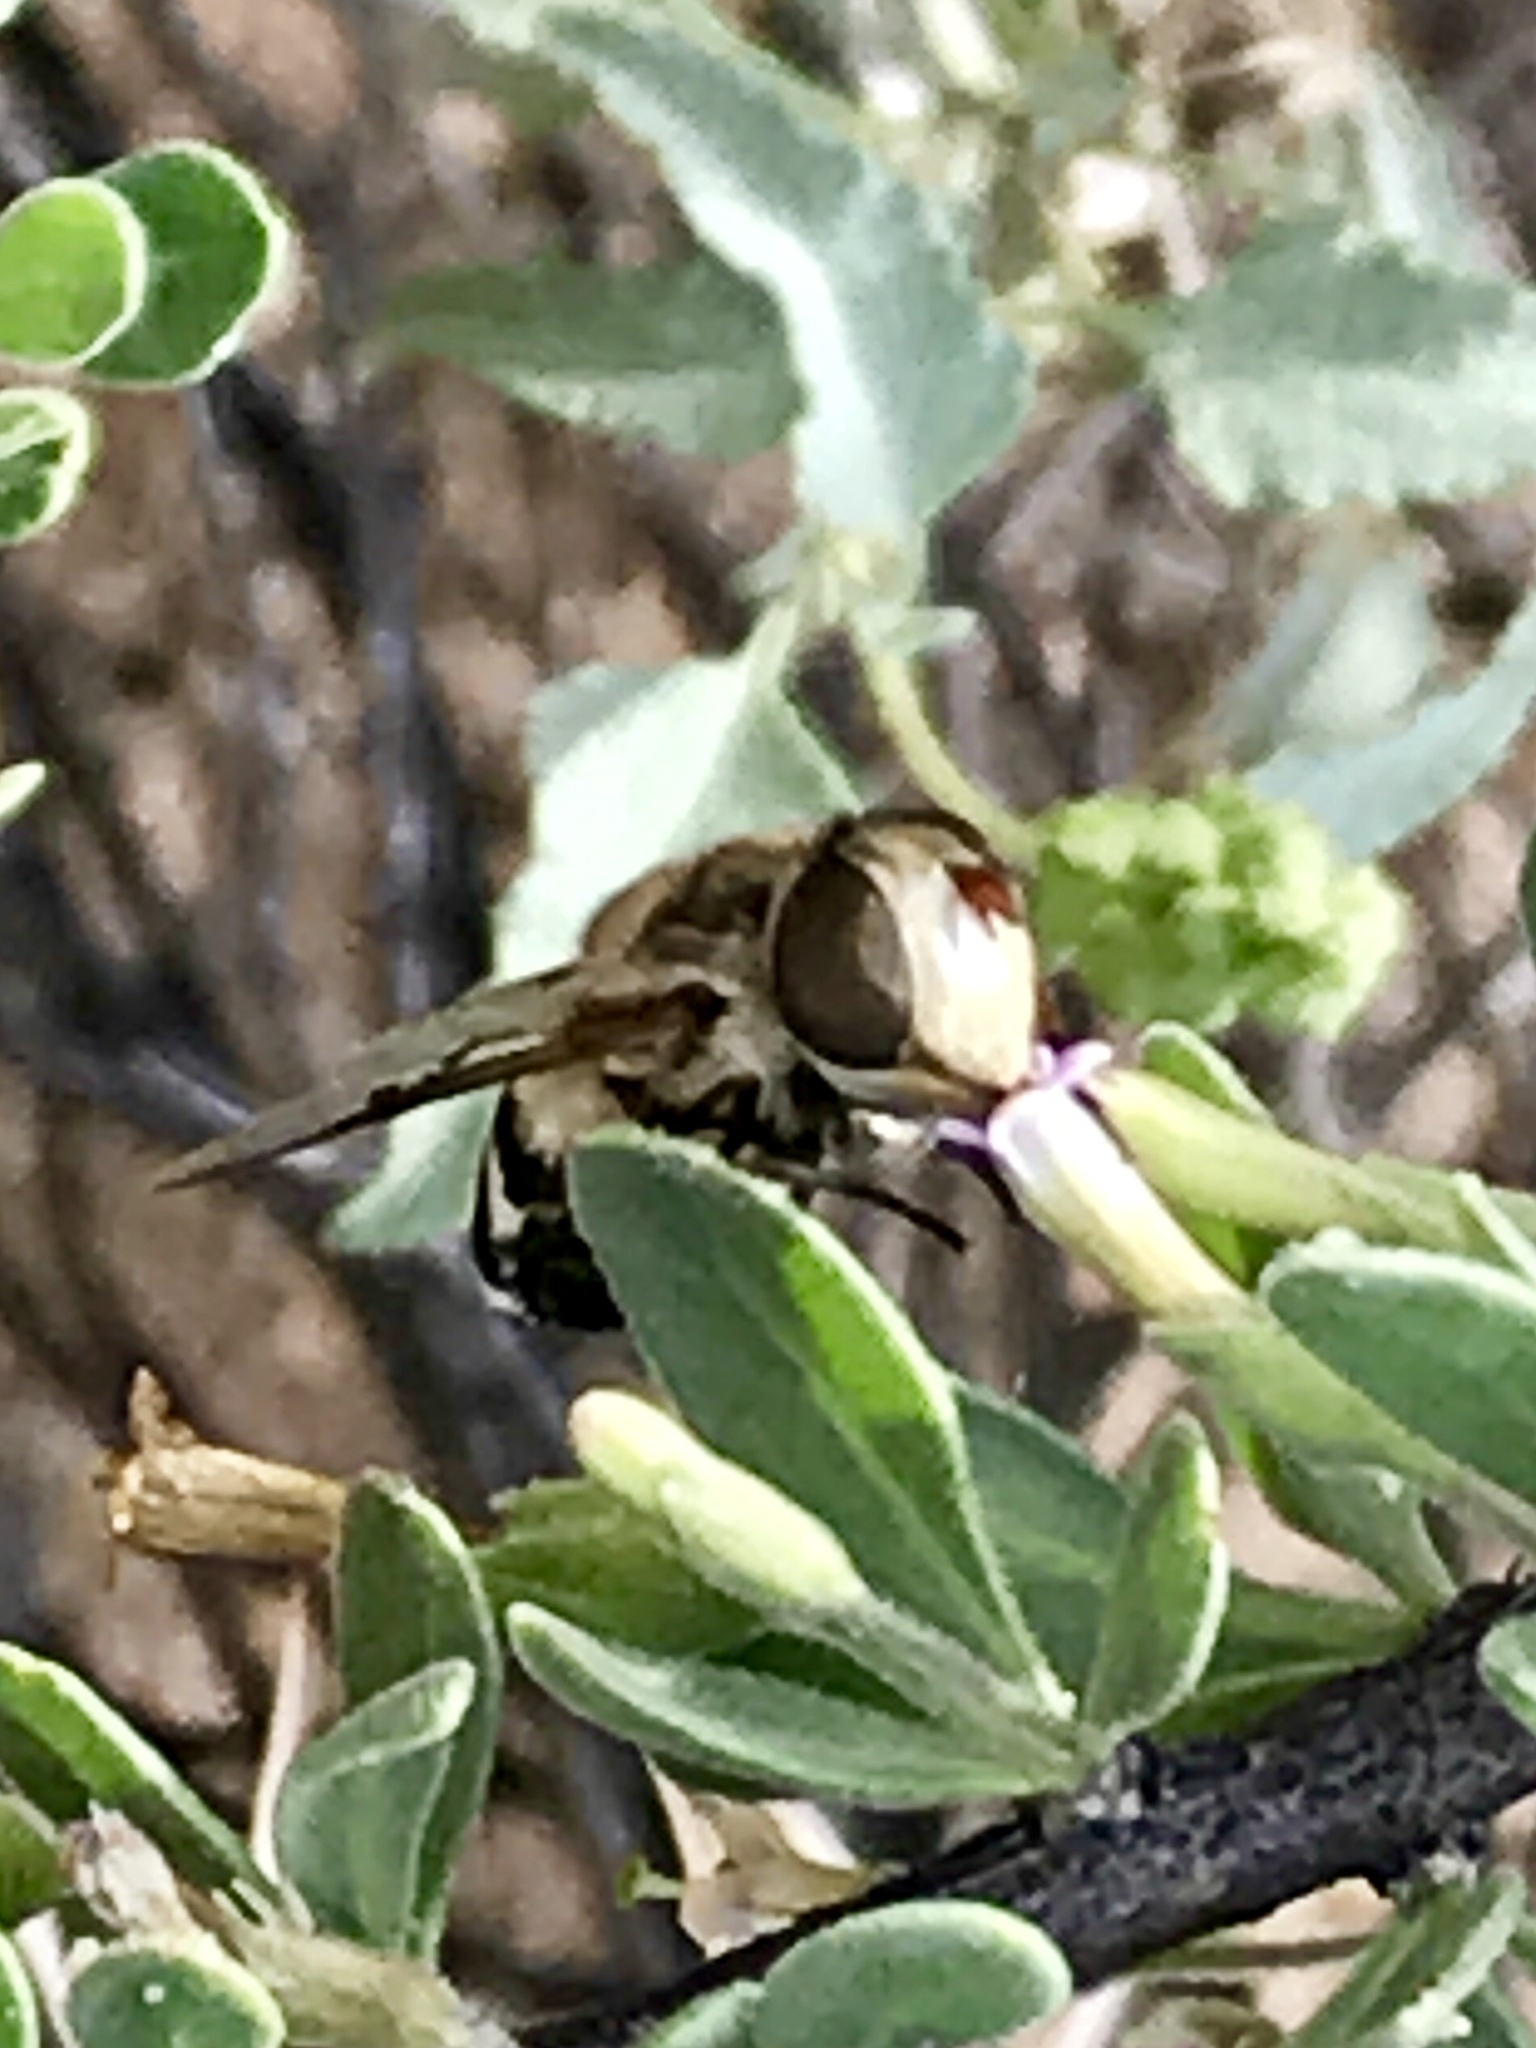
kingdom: Animalia
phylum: Arthropoda
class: Insecta
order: Diptera
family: Syrphidae
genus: Copestylum
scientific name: Copestylum apiciferum
